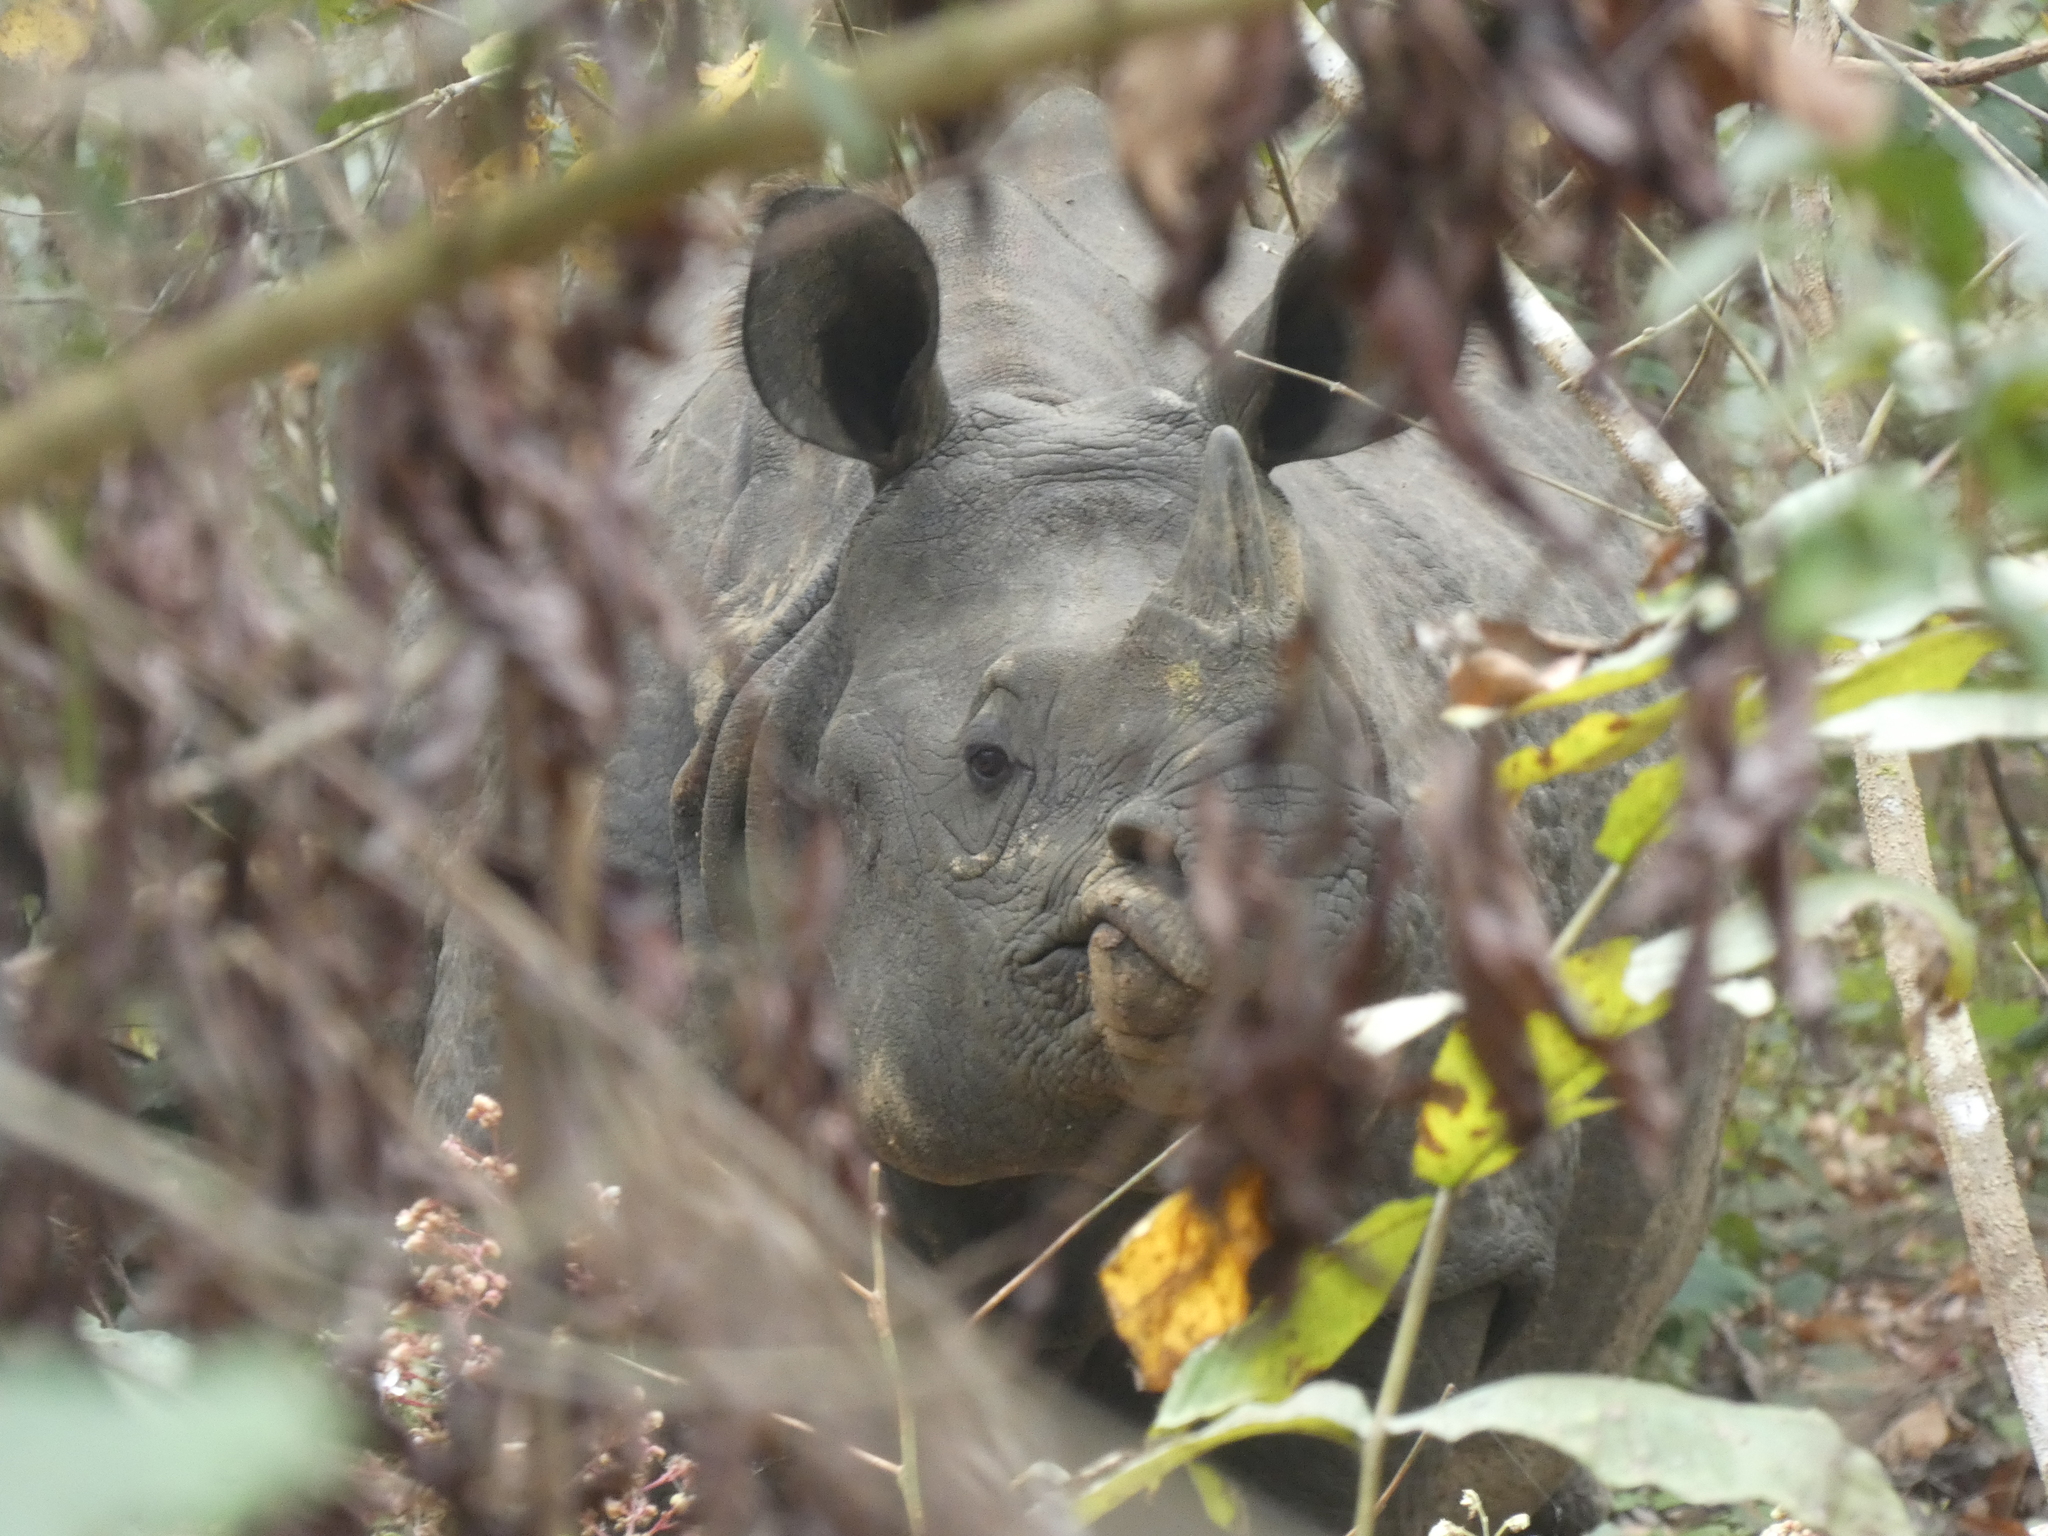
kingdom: Animalia
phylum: Chordata
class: Mammalia
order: Perissodactyla
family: Rhinocerotidae
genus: Rhinoceros
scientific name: Rhinoceros unicornis
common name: Indian rhinoceros
